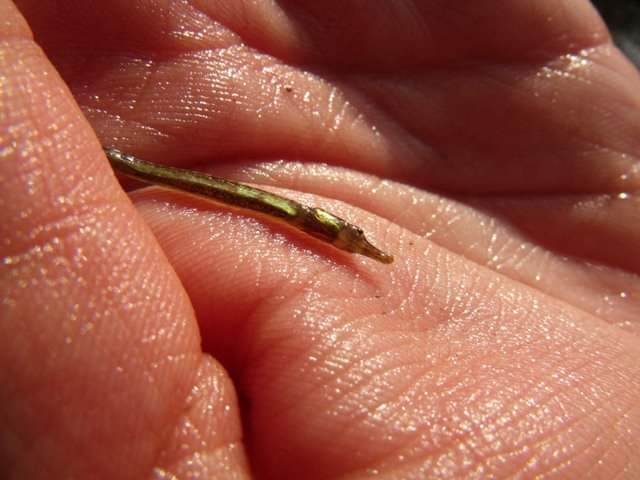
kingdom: Animalia
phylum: Chordata
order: Syngnathiformes
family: Syngnathidae
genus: Syngnathus
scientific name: Syngnathus abaster
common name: Black-striped pipefish
